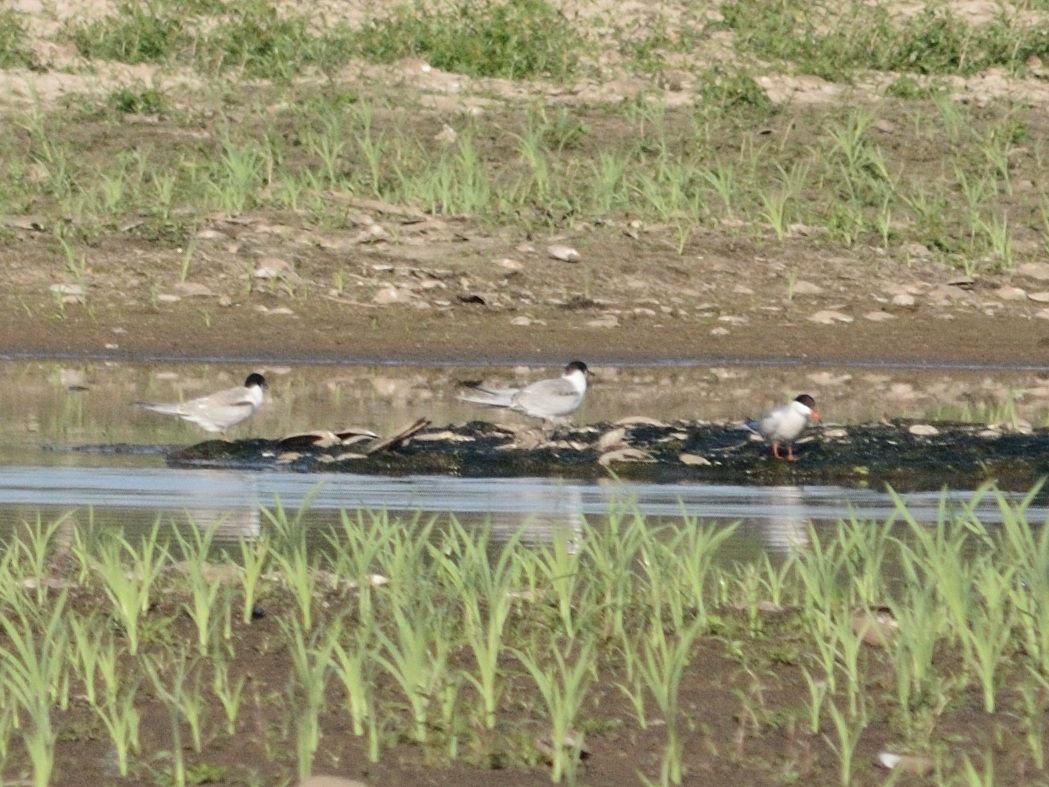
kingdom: Animalia
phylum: Chordata
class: Aves
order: Charadriiformes
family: Laridae
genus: Sterna
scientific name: Sterna hirundo
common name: Common tern
